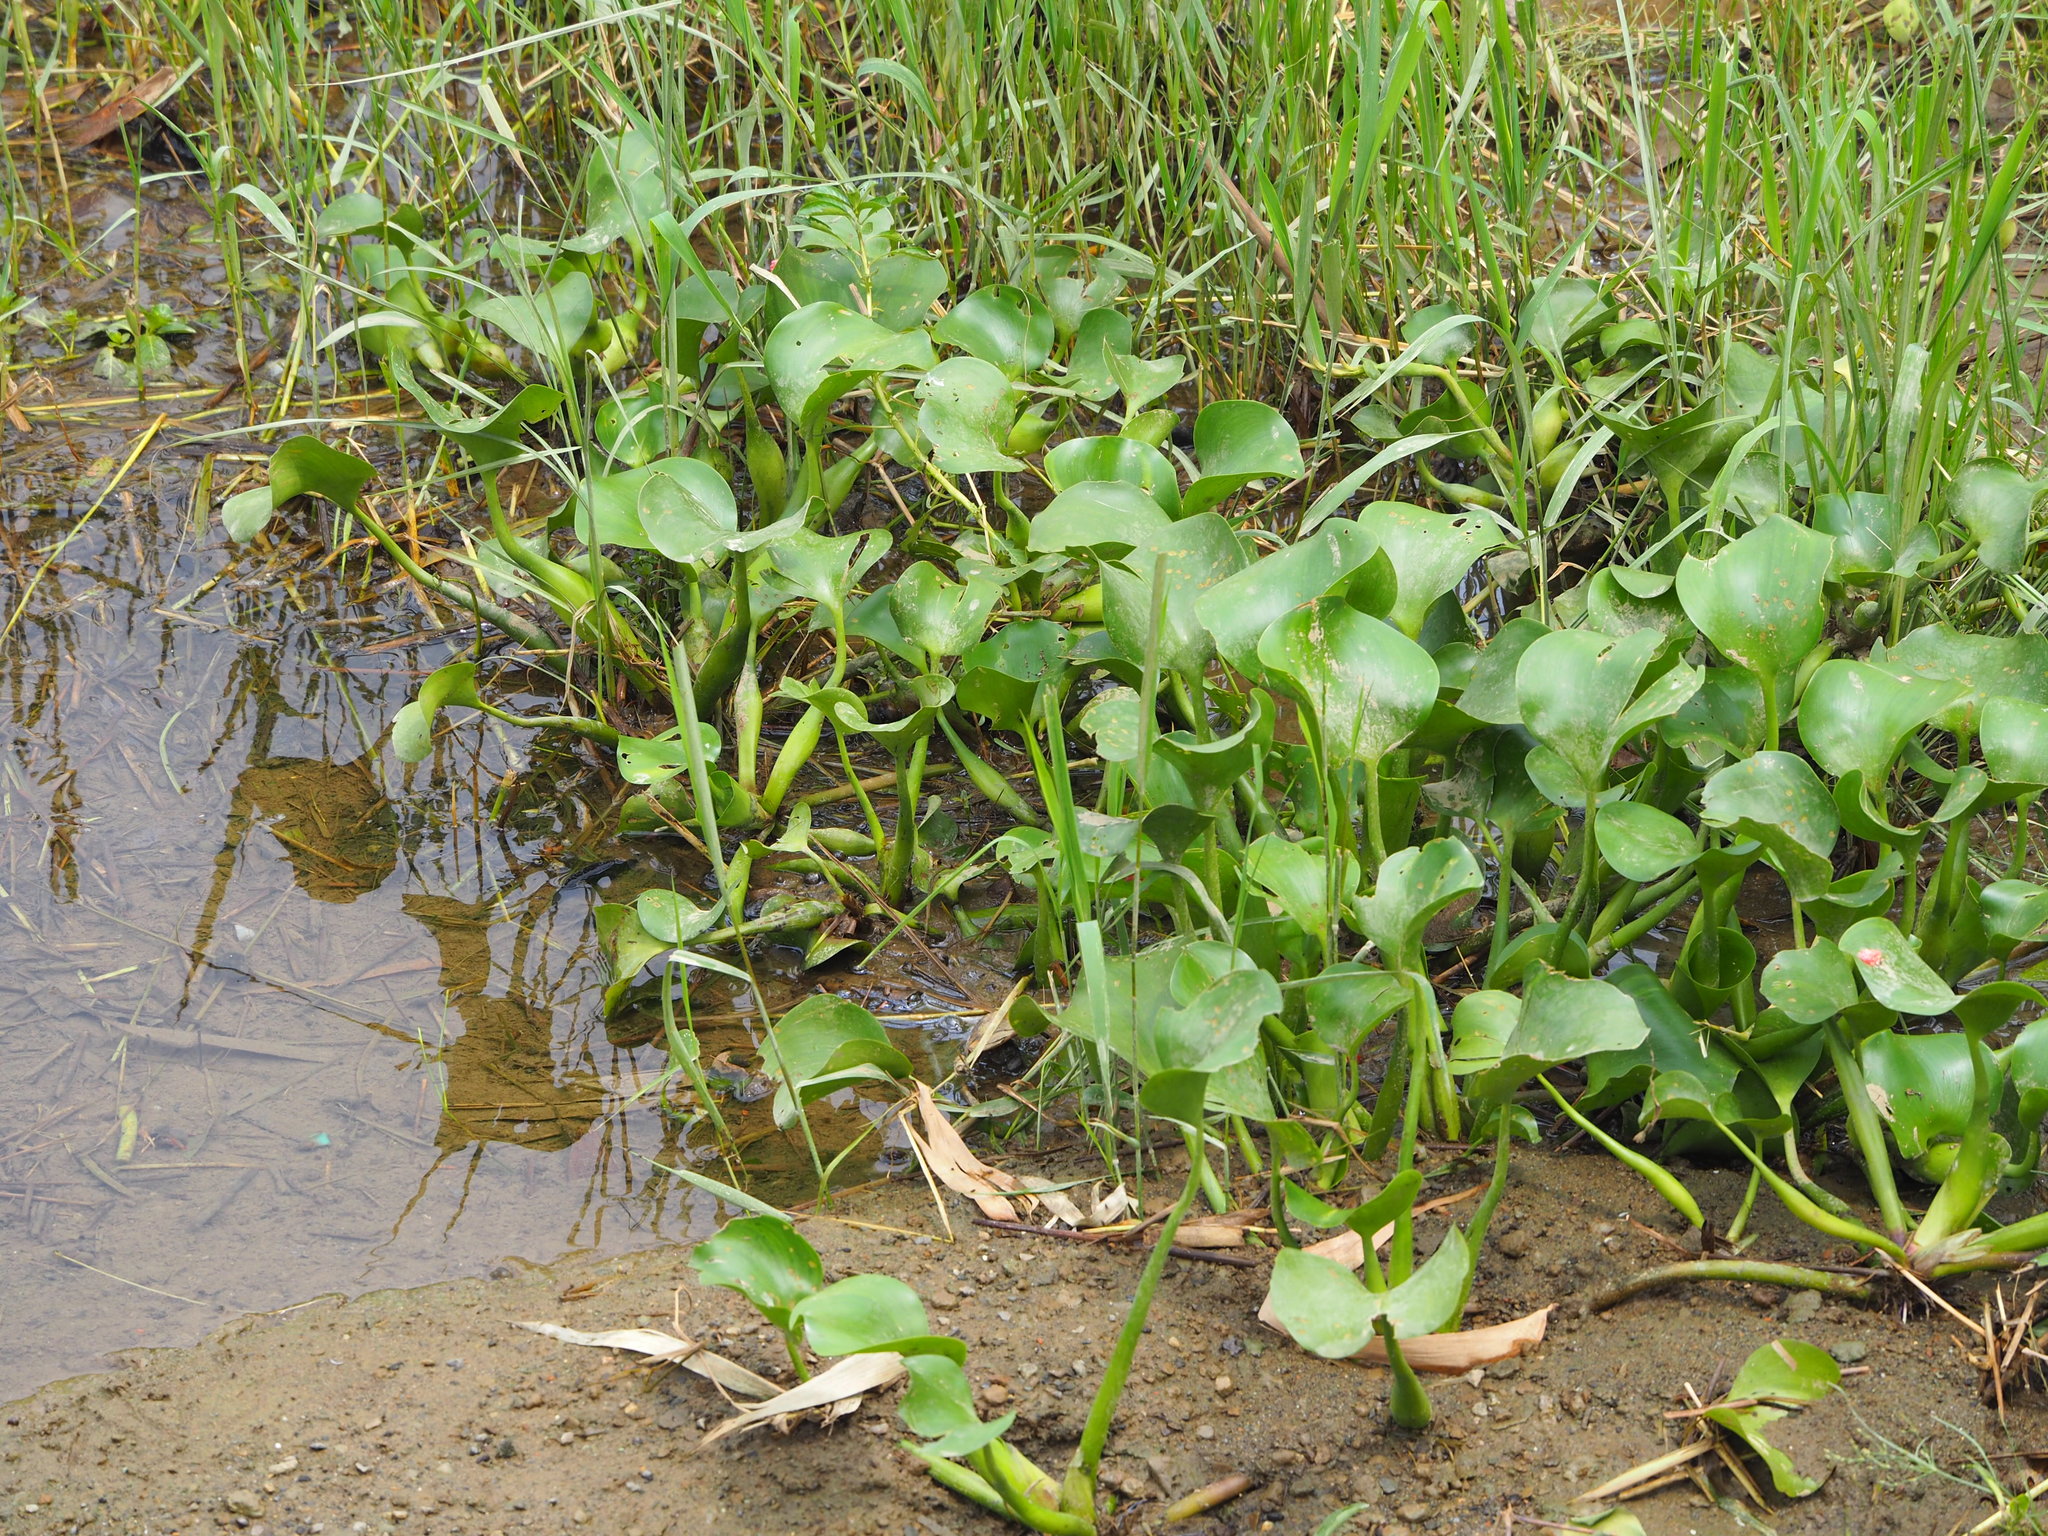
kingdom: Plantae
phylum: Tracheophyta
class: Liliopsida
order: Commelinales
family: Pontederiaceae
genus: Pontederia
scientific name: Pontederia crassipes
